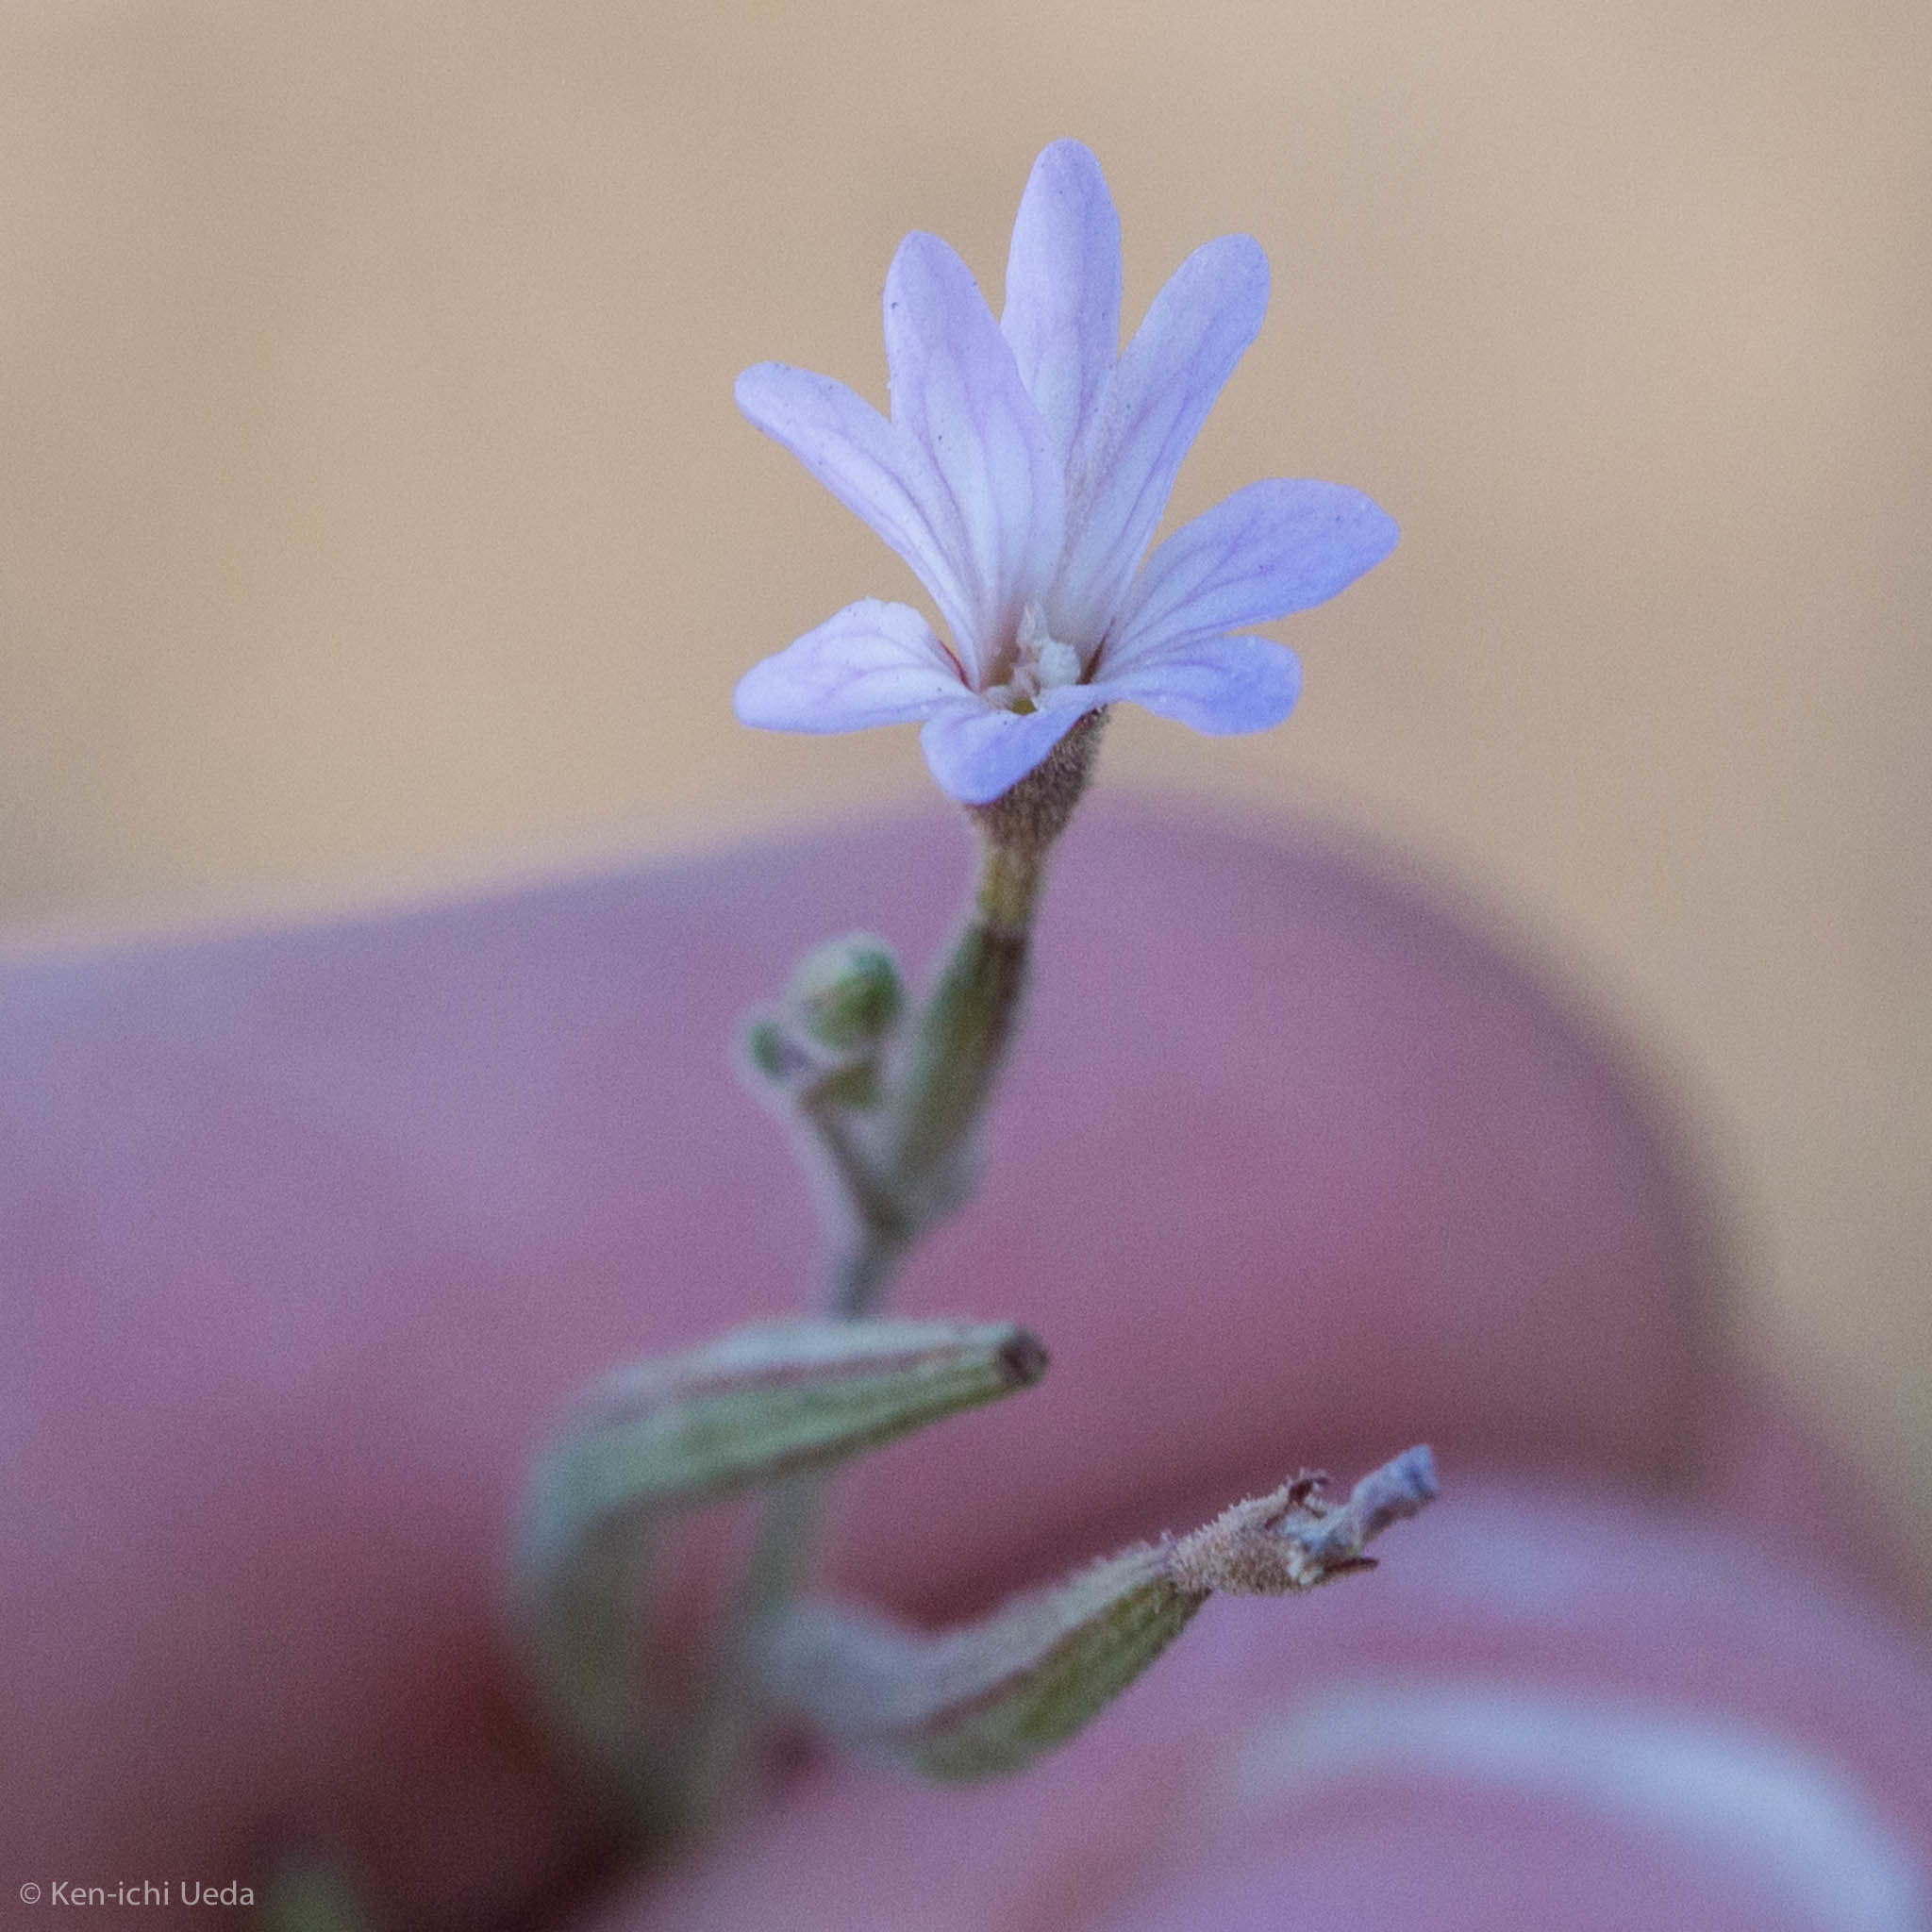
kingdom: Plantae
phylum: Tracheophyta
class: Magnoliopsida
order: Myrtales
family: Onagraceae
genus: Epilobium
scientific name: Epilobium brachycarpum
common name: Annual willowherb
